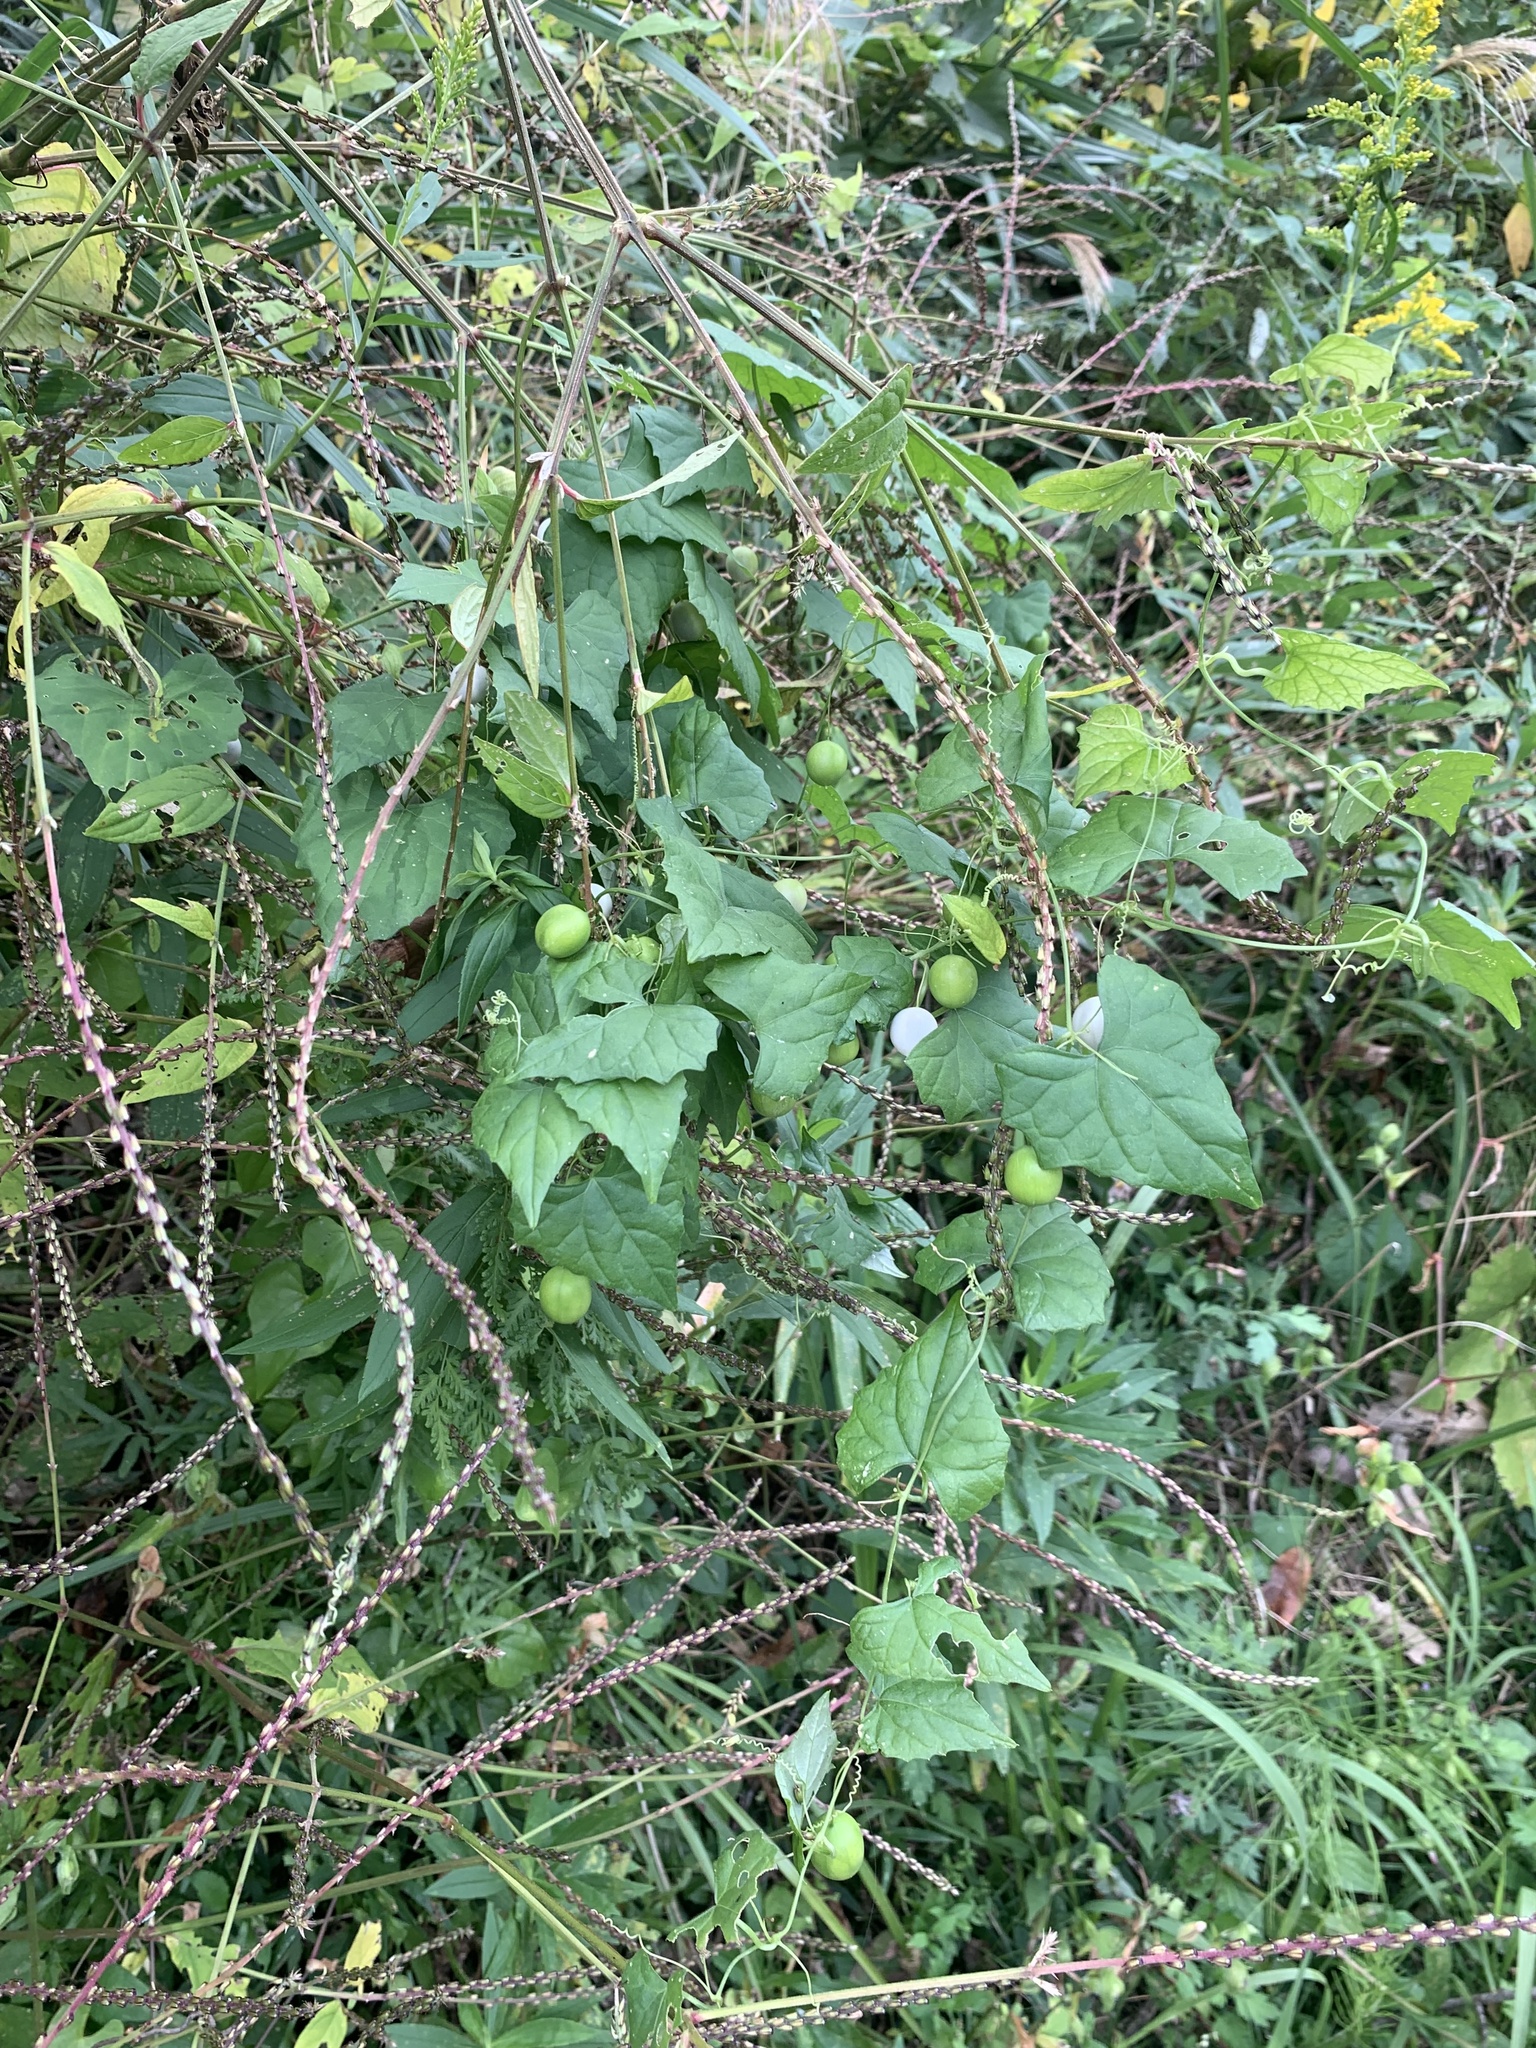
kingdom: Plantae
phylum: Tracheophyta
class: Magnoliopsida
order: Cucurbitales
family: Cucurbitaceae
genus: Zehneria
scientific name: Zehneria japonica
